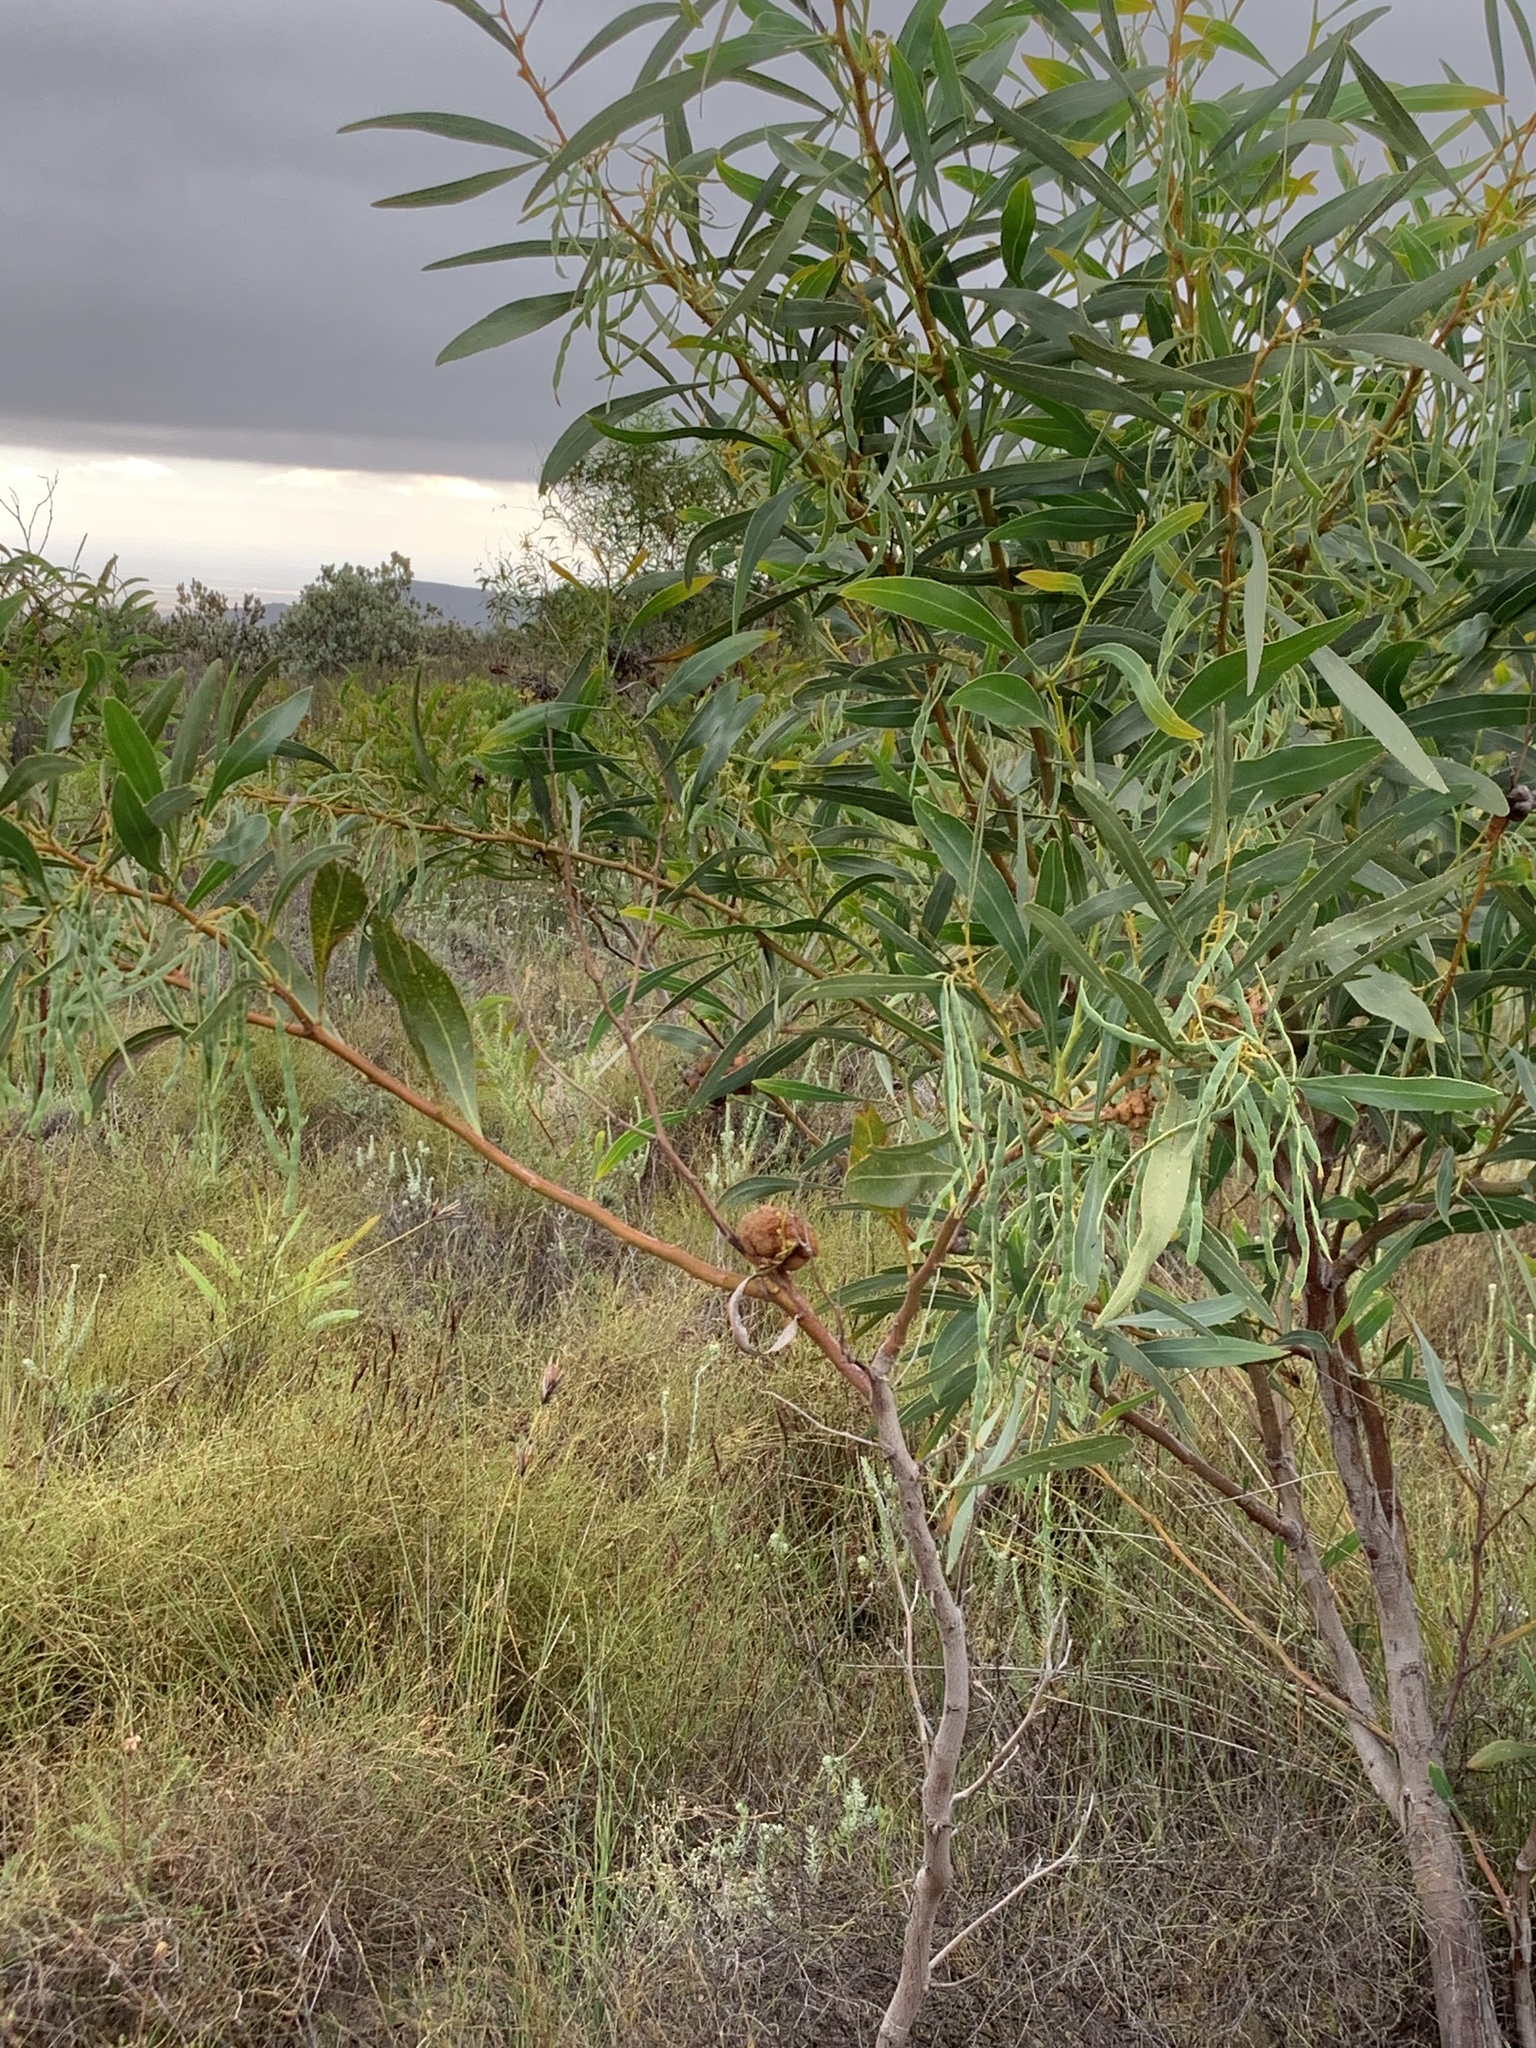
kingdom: Plantae
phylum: Tracheophyta
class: Magnoliopsida
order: Fabales
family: Fabaceae
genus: Acacia
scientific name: Acacia saligna
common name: Orange wattle
